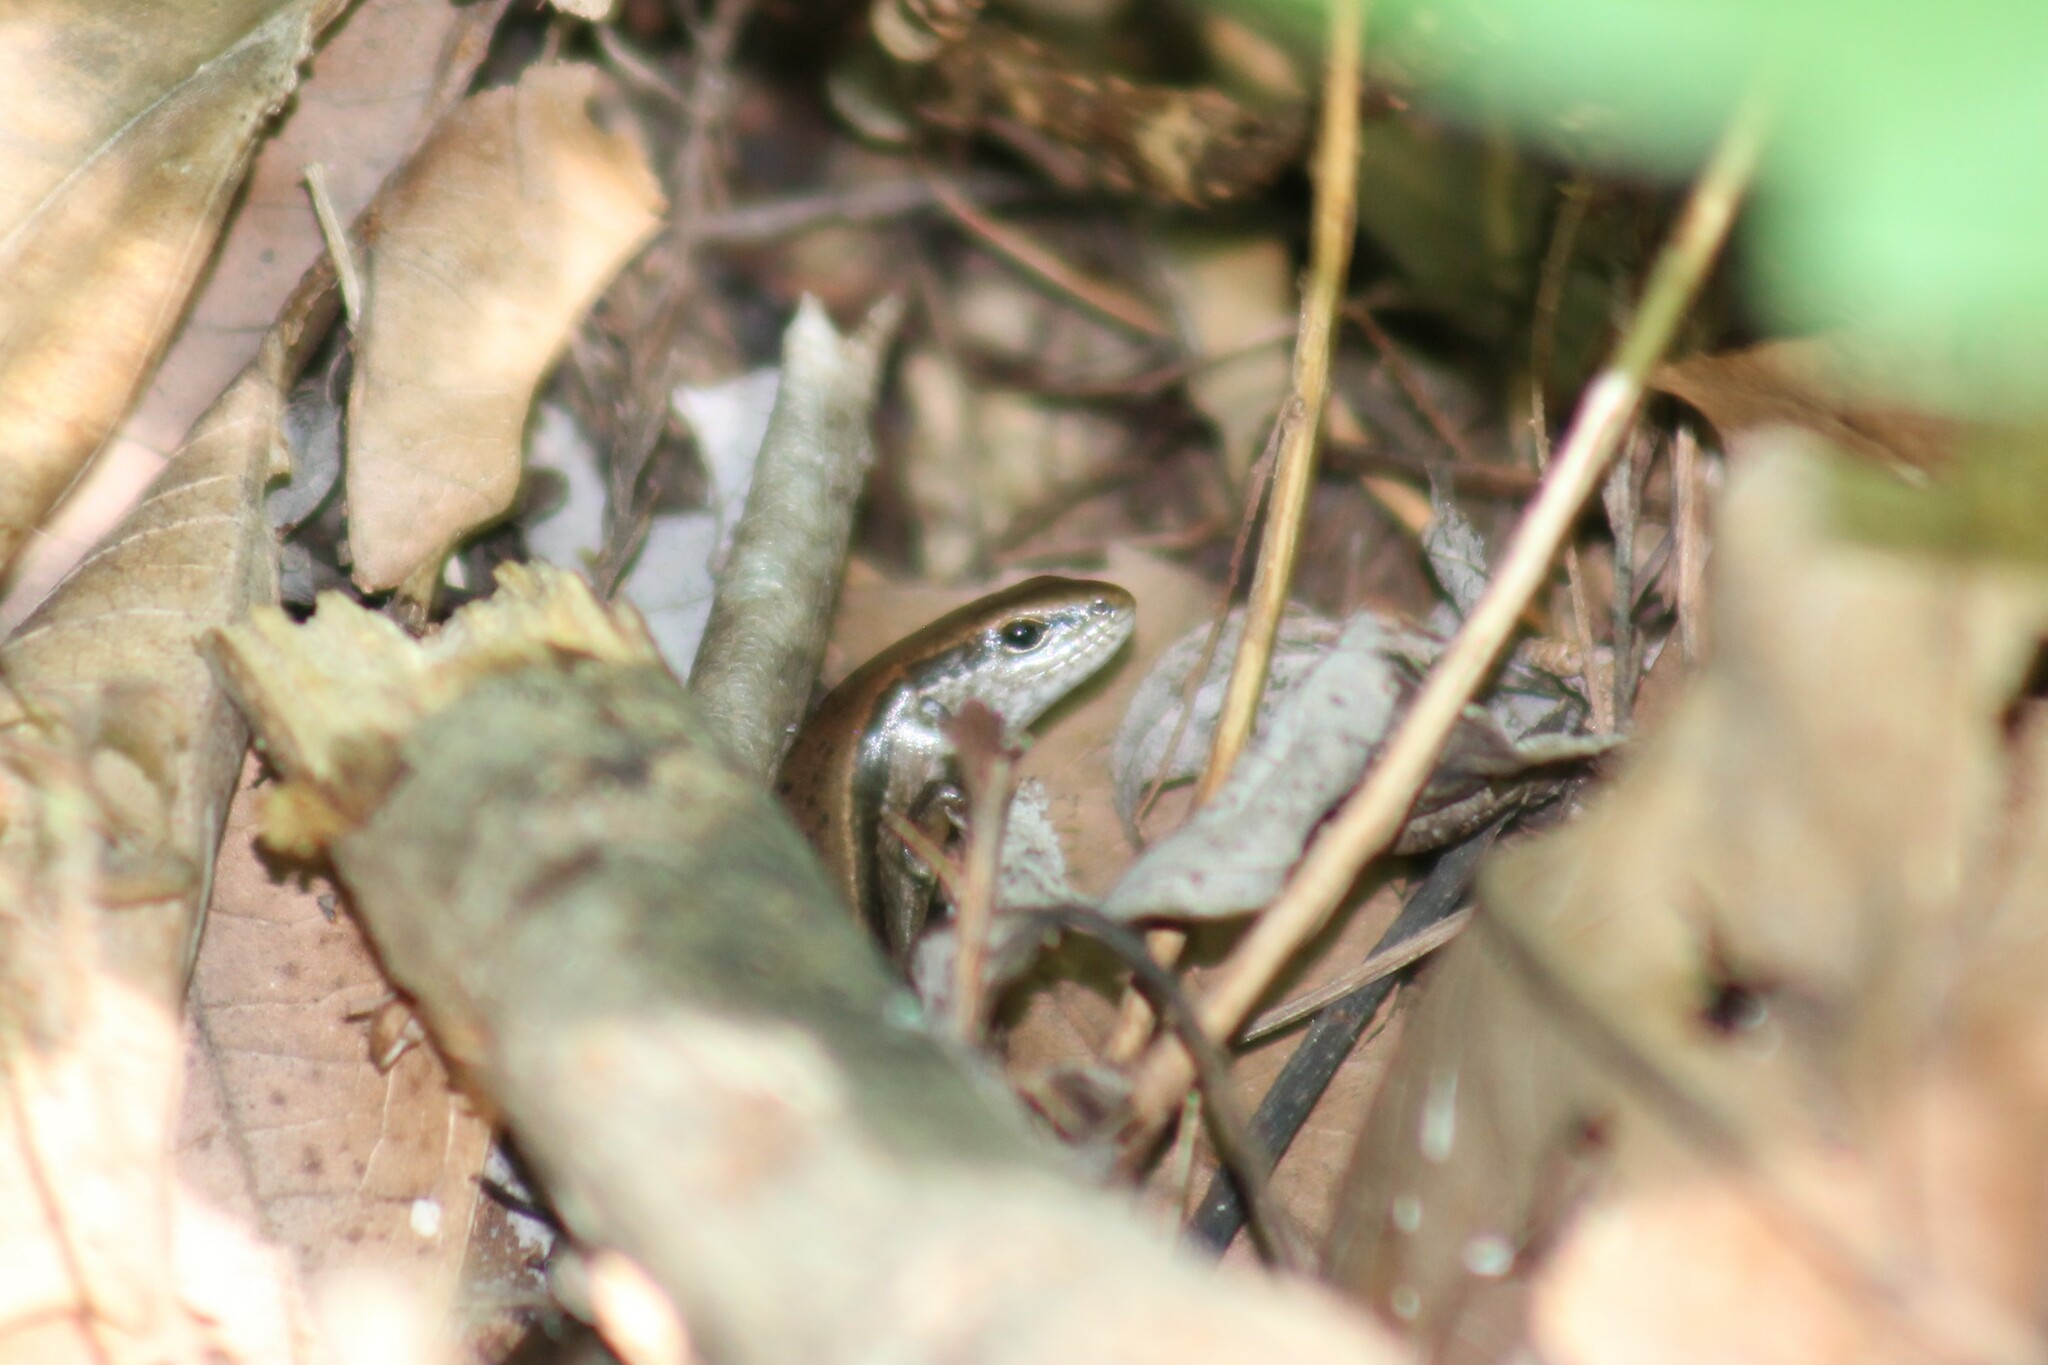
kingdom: Animalia
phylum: Chordata
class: Squamata
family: Scincidae
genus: Scincella
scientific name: Scincella lateralis
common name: Ground skink
